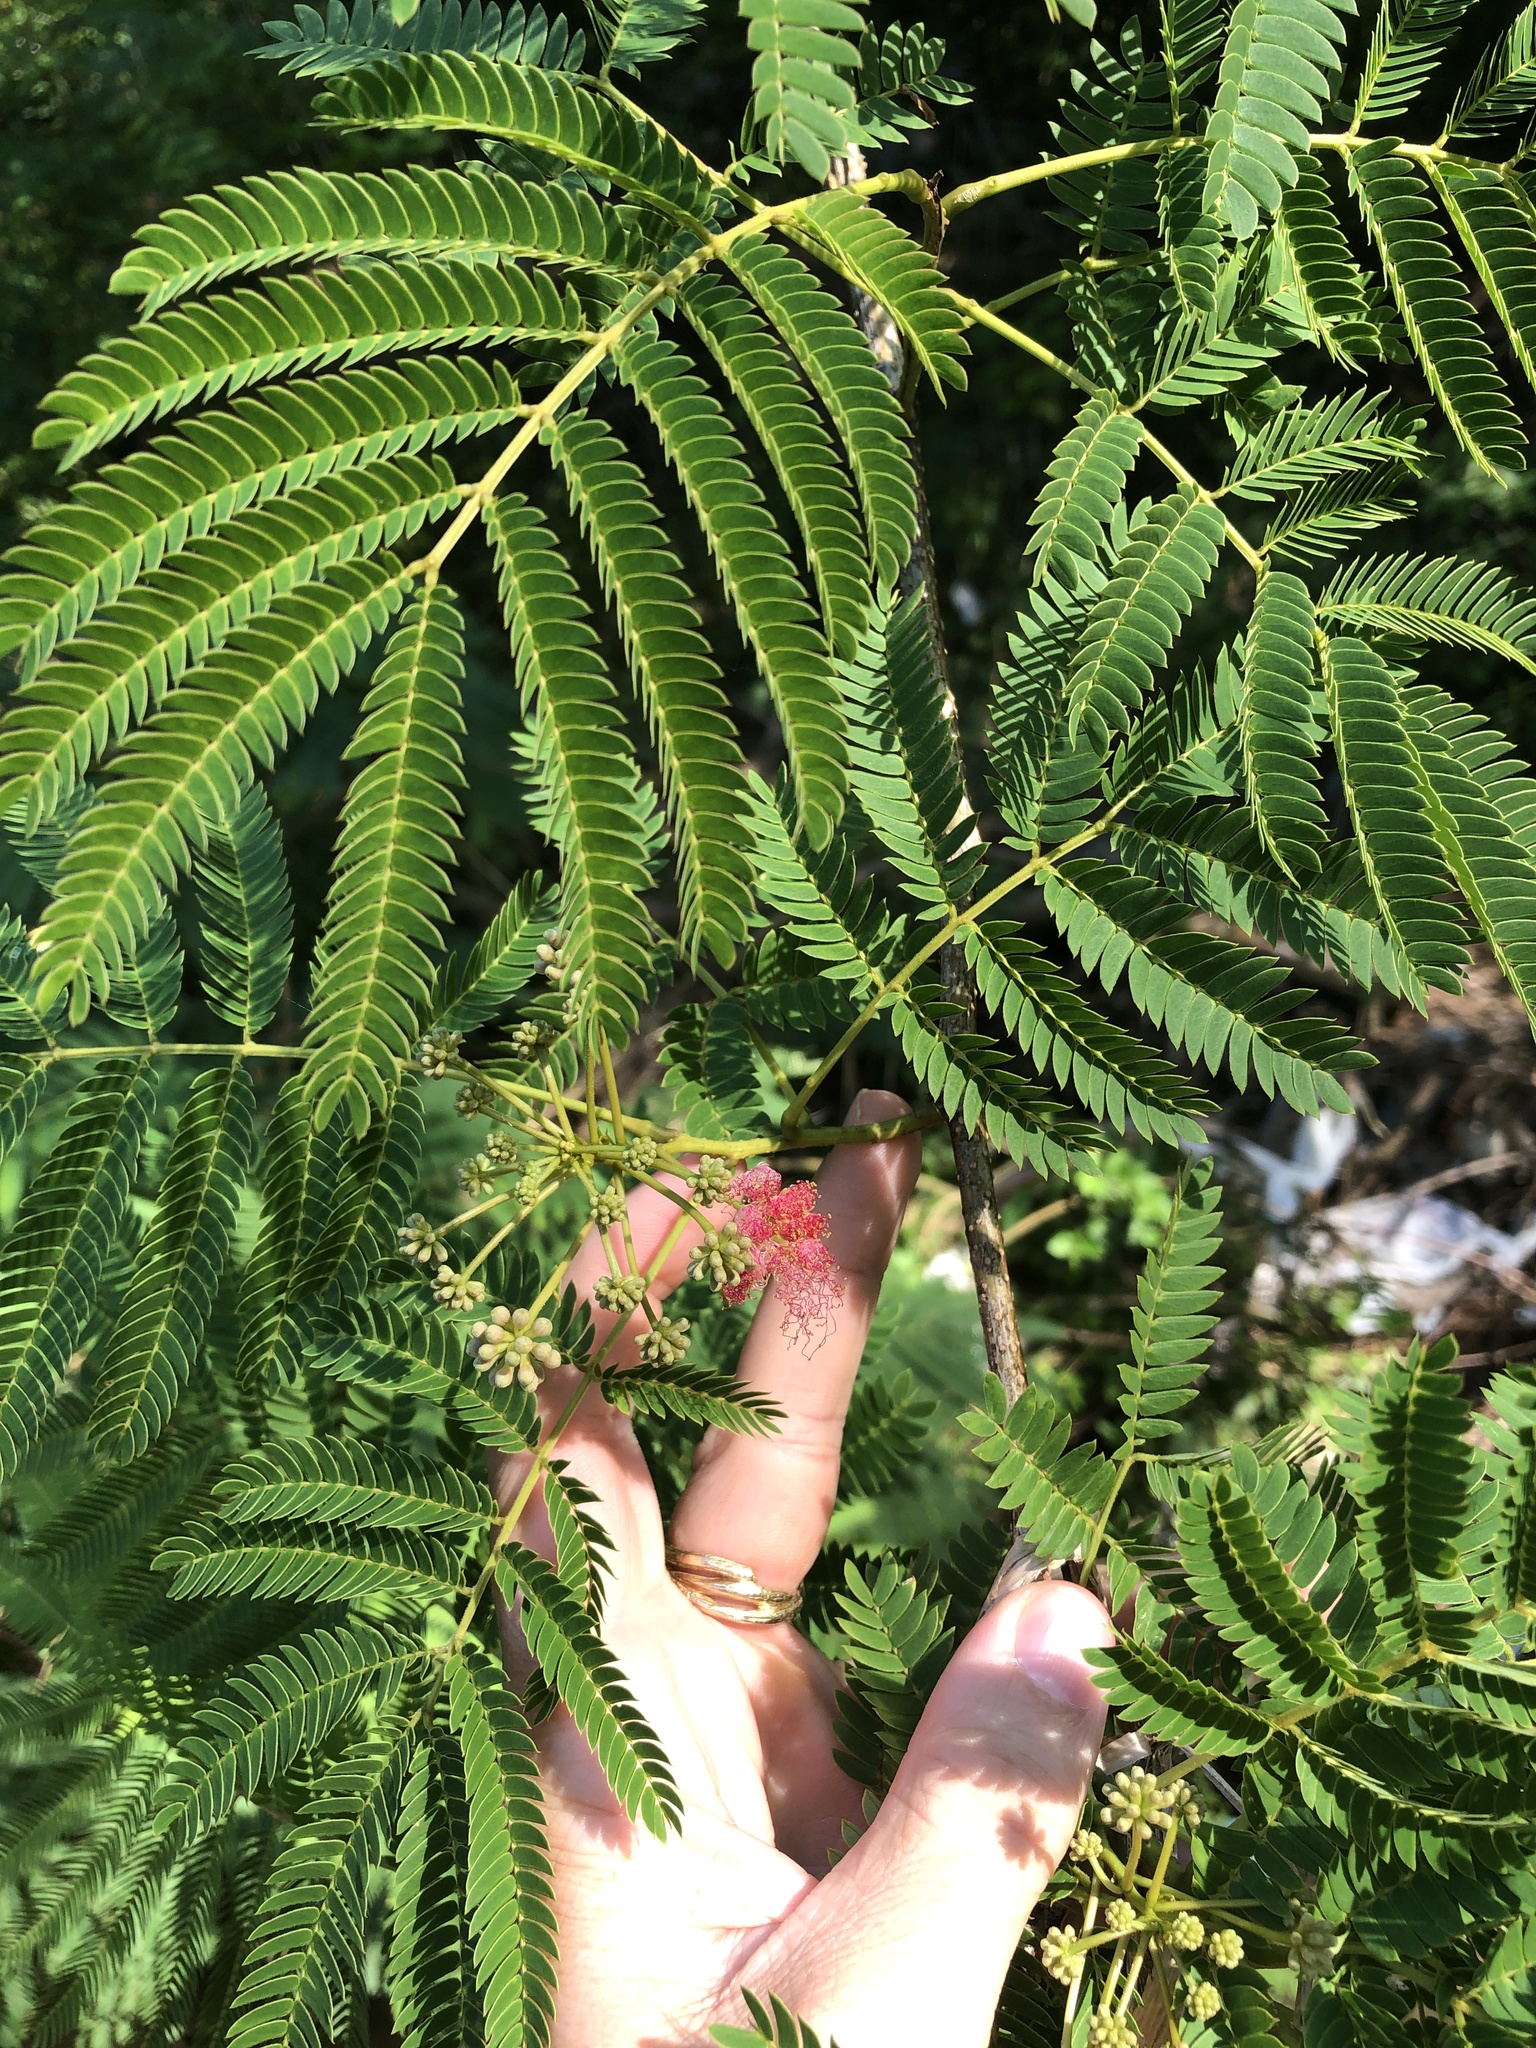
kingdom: Plantae
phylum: Tracheophyta
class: Magnoliopsida
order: Fabales
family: Fabaceae
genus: Albizia
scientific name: Albizia julibrissin
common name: Silktree
